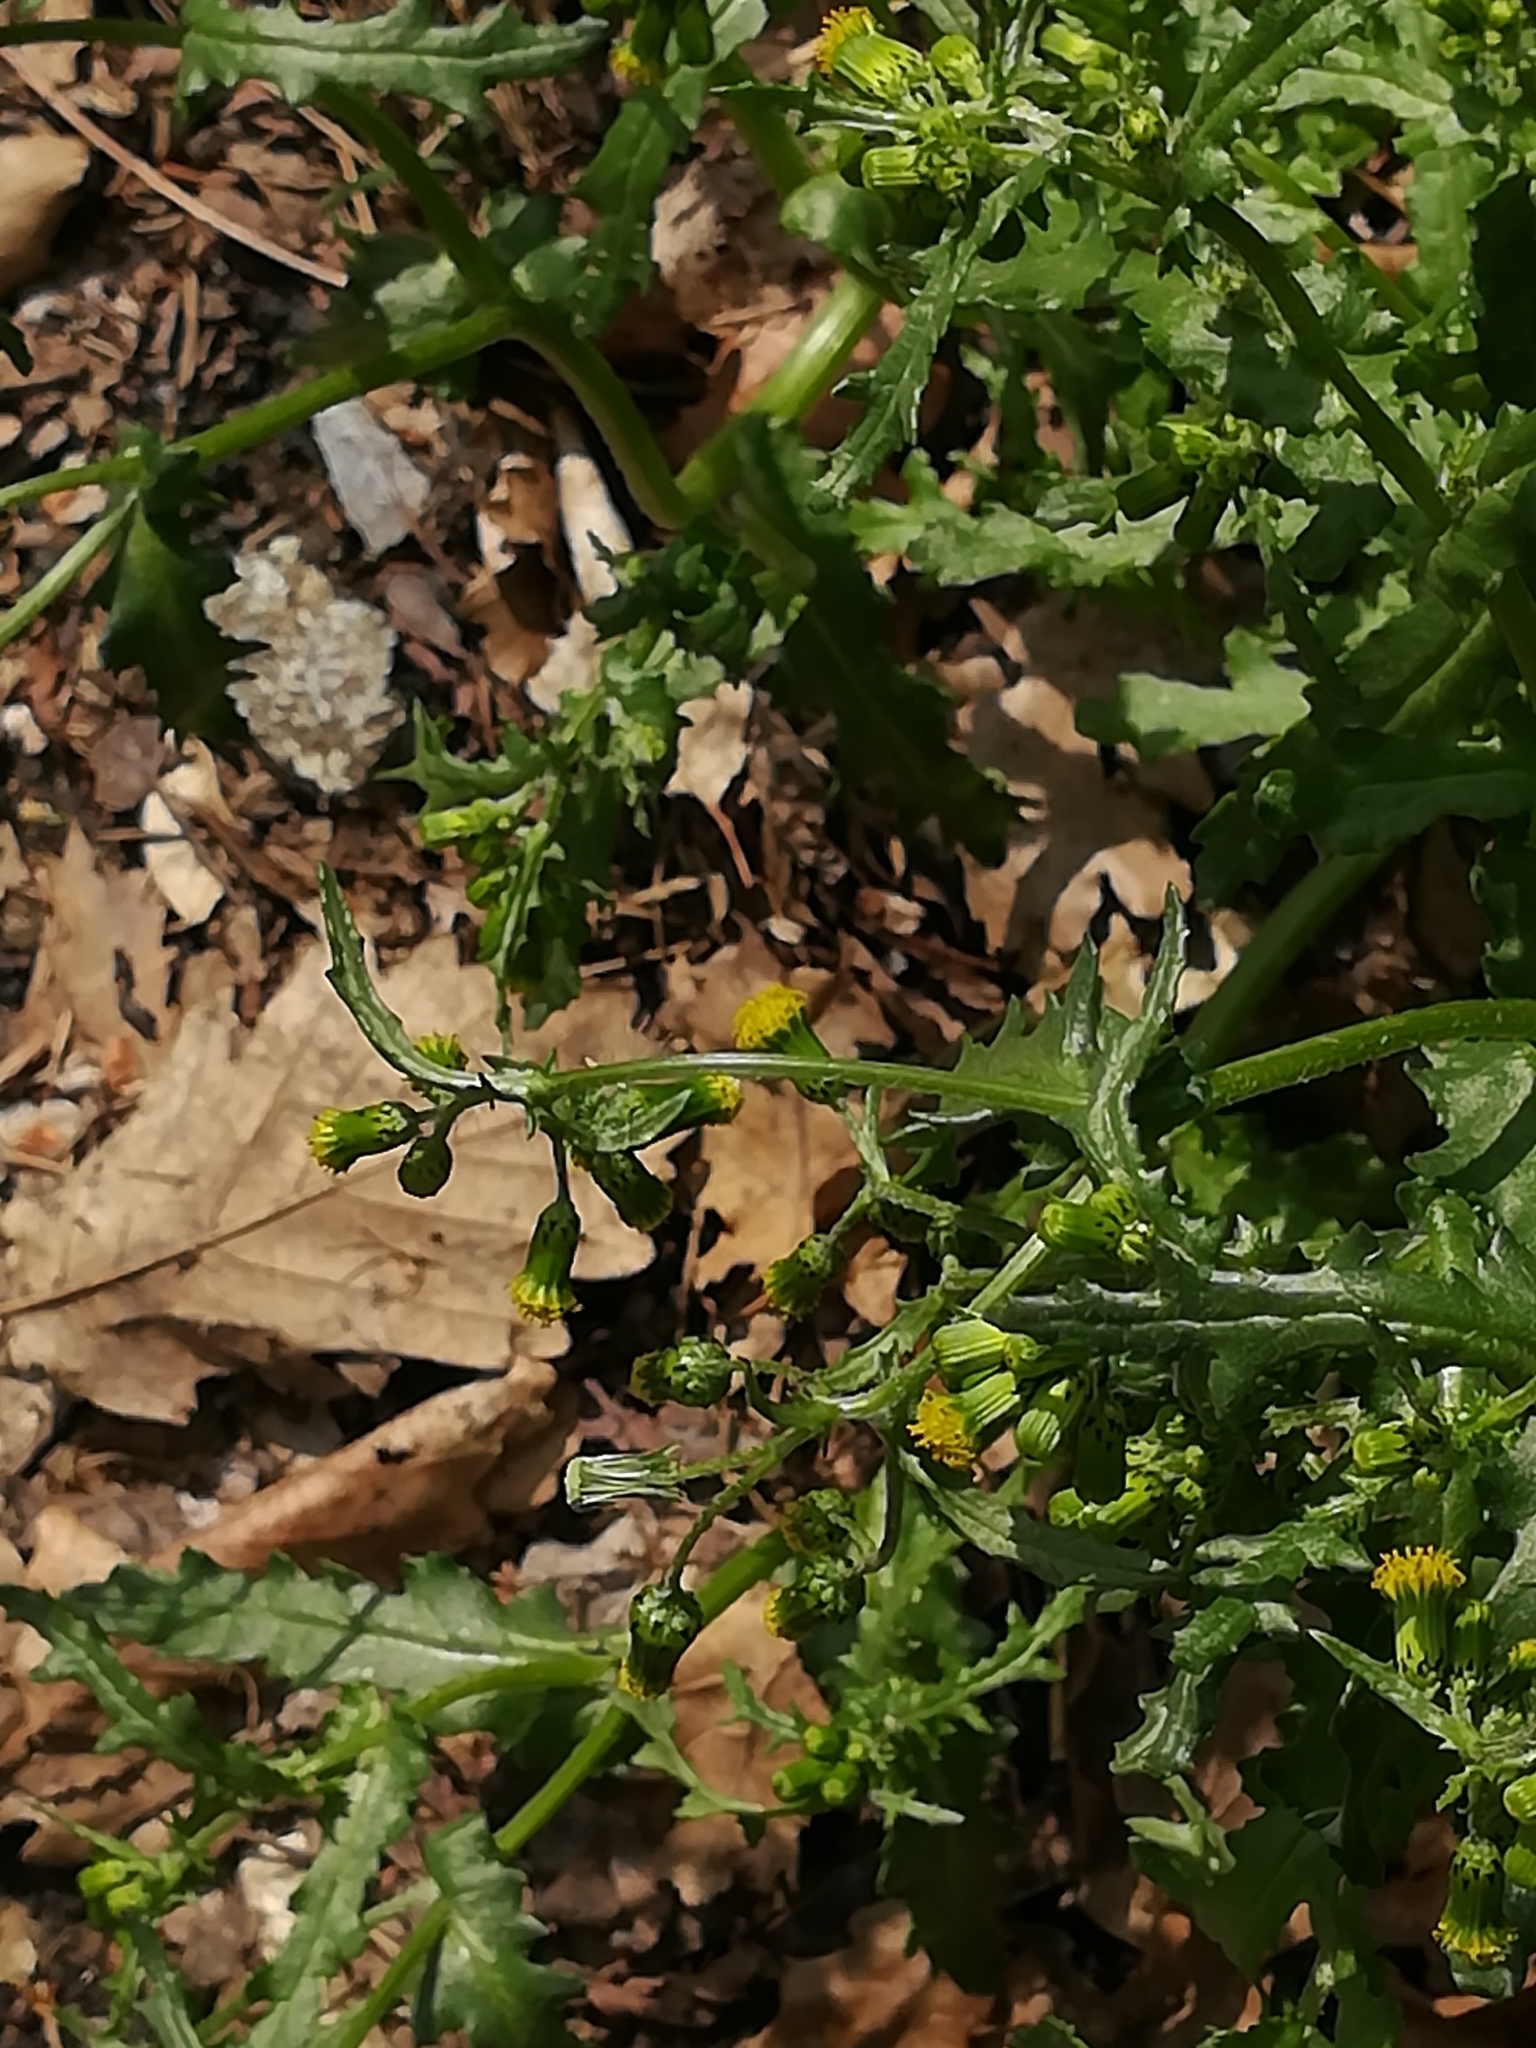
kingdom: Plantae
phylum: Tracheophyta
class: Magnoliopsida
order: Asterales
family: Asteraceae
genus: Senecio
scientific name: Senecio vulgaris
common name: Old-man-in-the-spring
